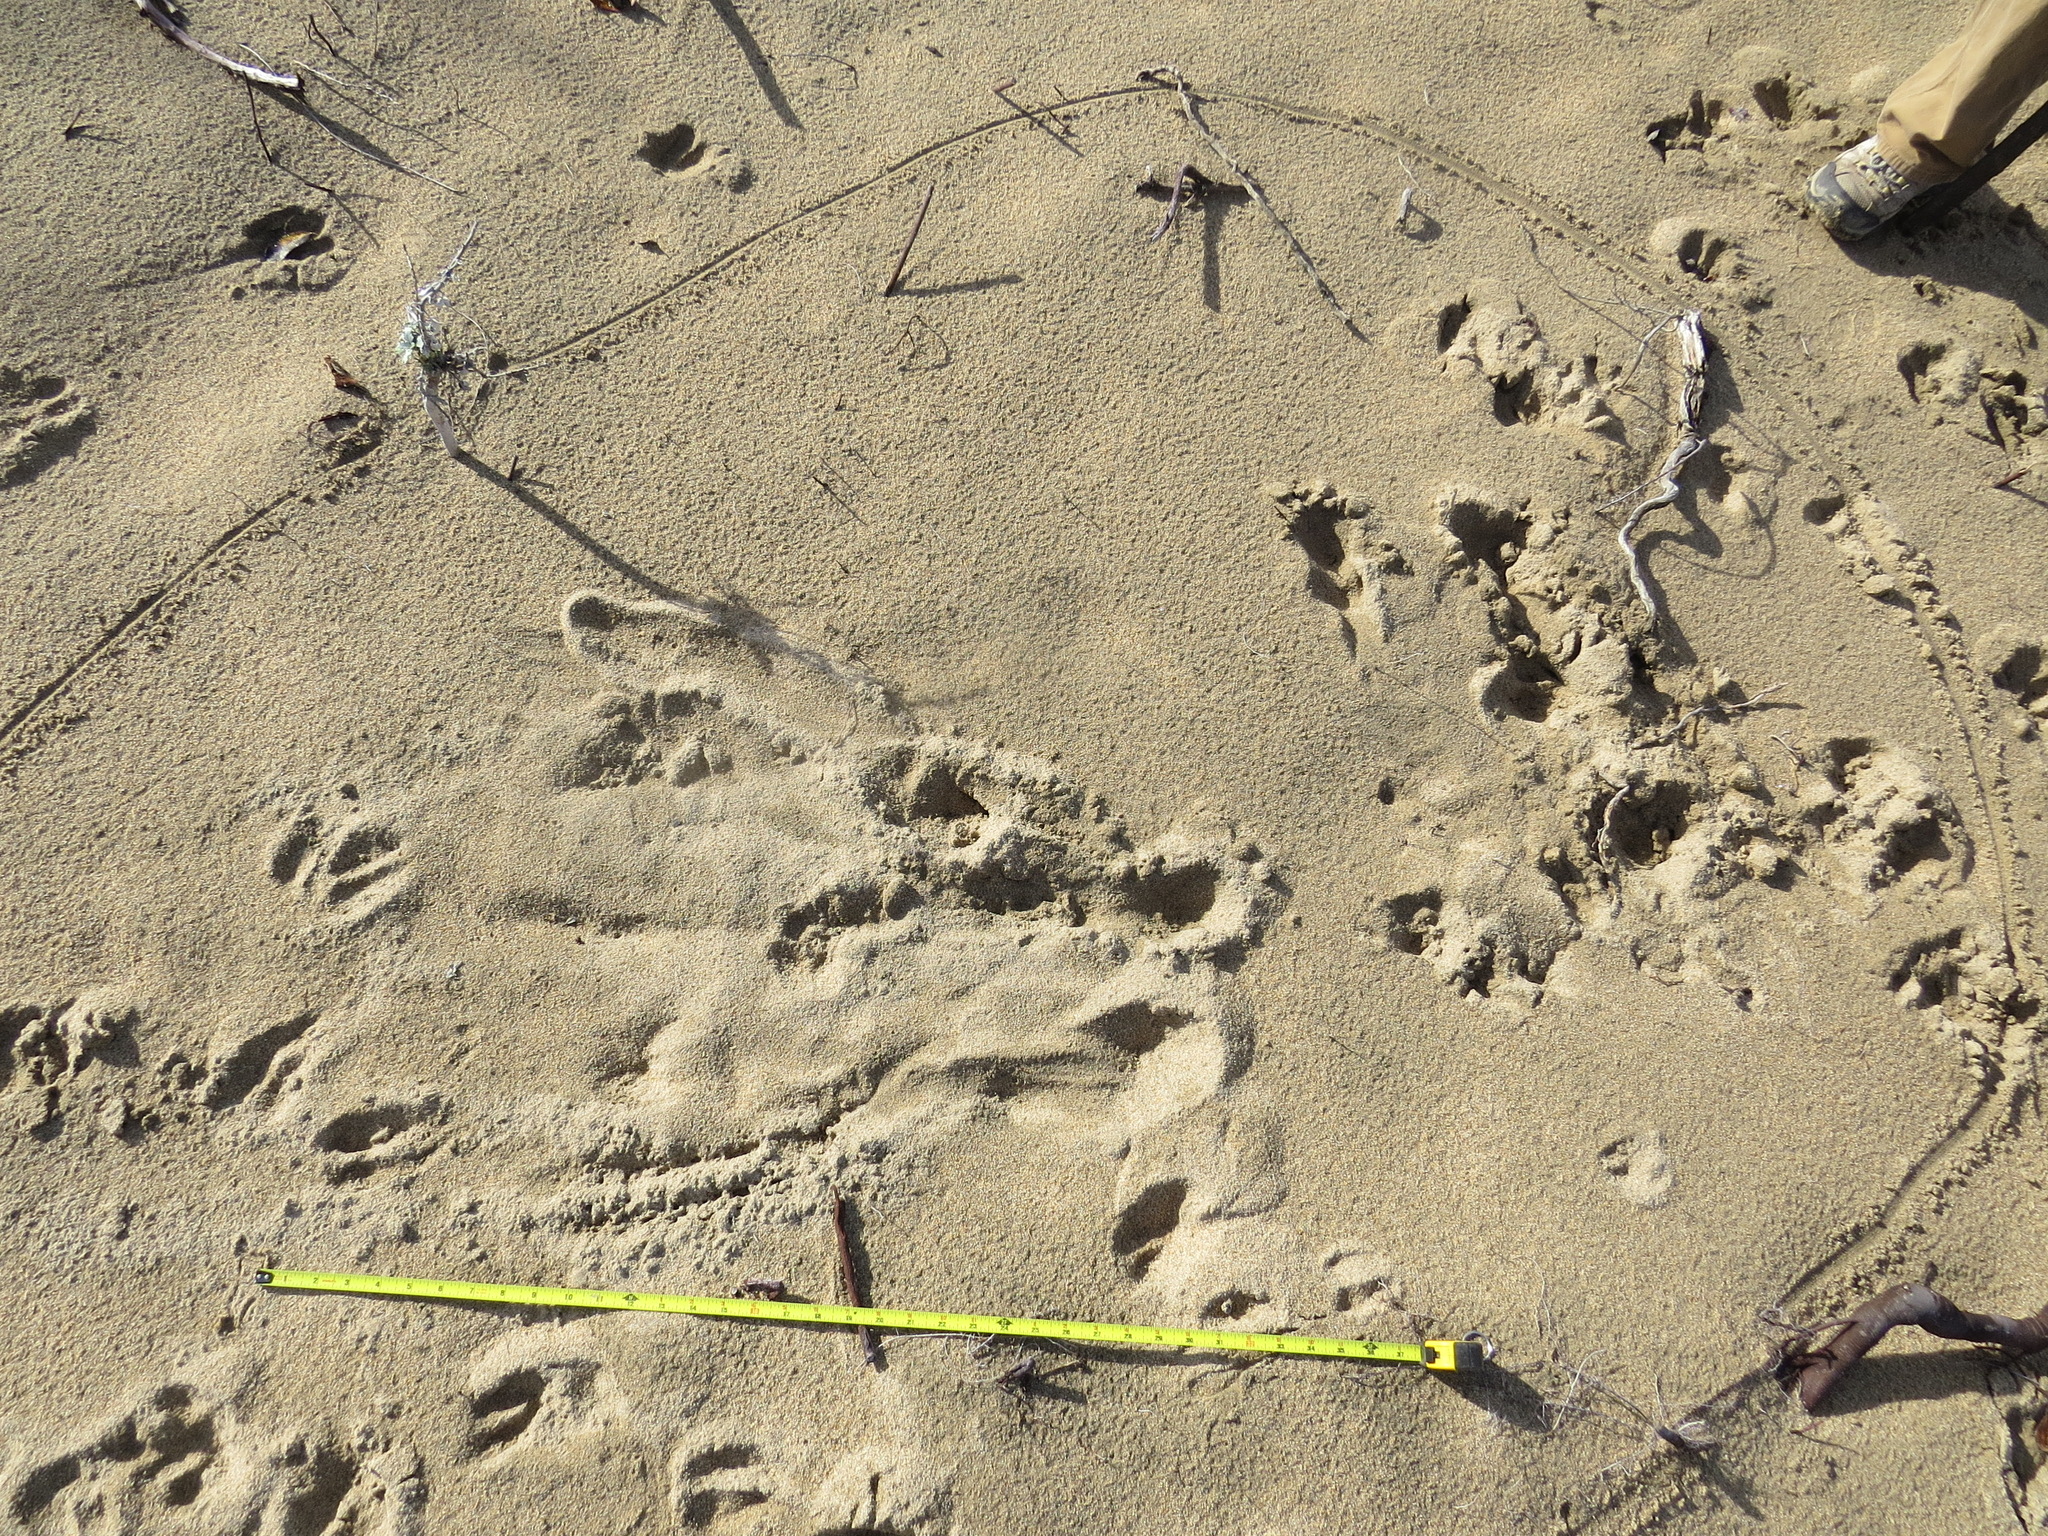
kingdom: Animalia
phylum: Chordata
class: Mammalia
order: Artiodactyla
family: Cervidae
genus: Odocoileus
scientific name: Odocoileus hemionus
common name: Mule deer
